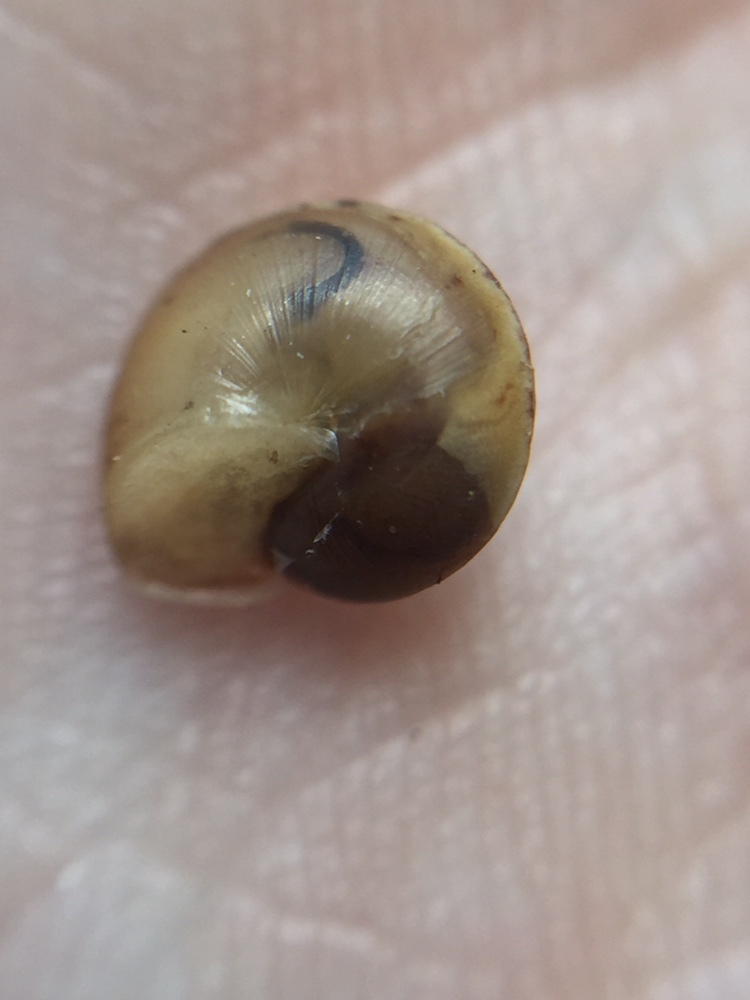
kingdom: Animalia
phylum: Mollusca
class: Gastropoda
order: Stylommatophora
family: Hygromiidae
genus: Hygromia
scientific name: Hygromia cinctella
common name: Girdled snail
